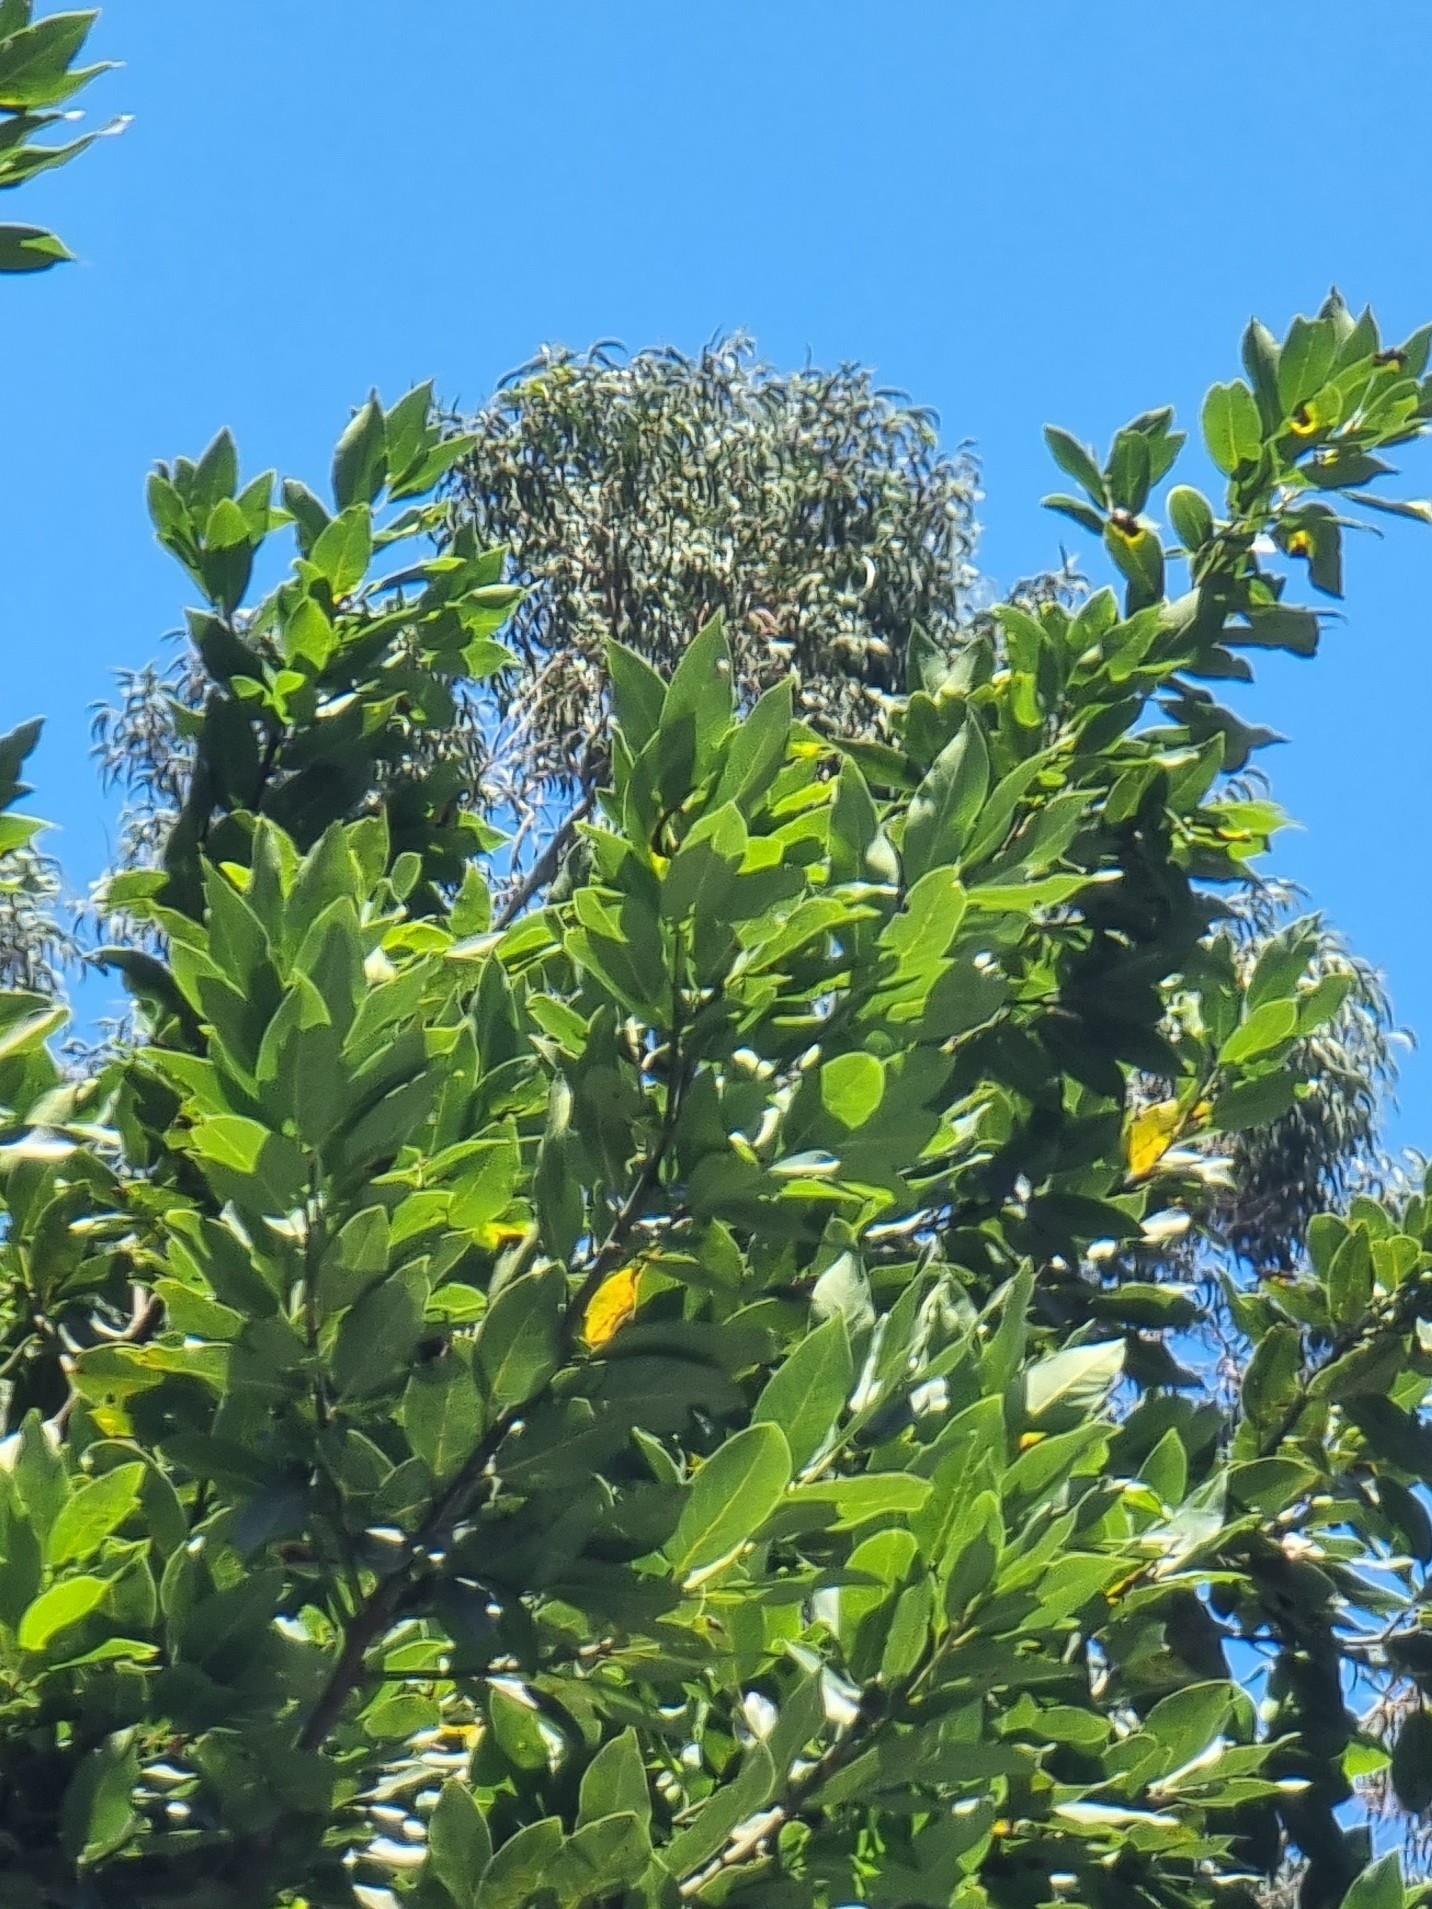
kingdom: Plantae
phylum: Tracheophyta
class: Magnoliopsida
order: Laurales
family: Lauraceae
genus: Laurus
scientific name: Laurus novocanariensis
